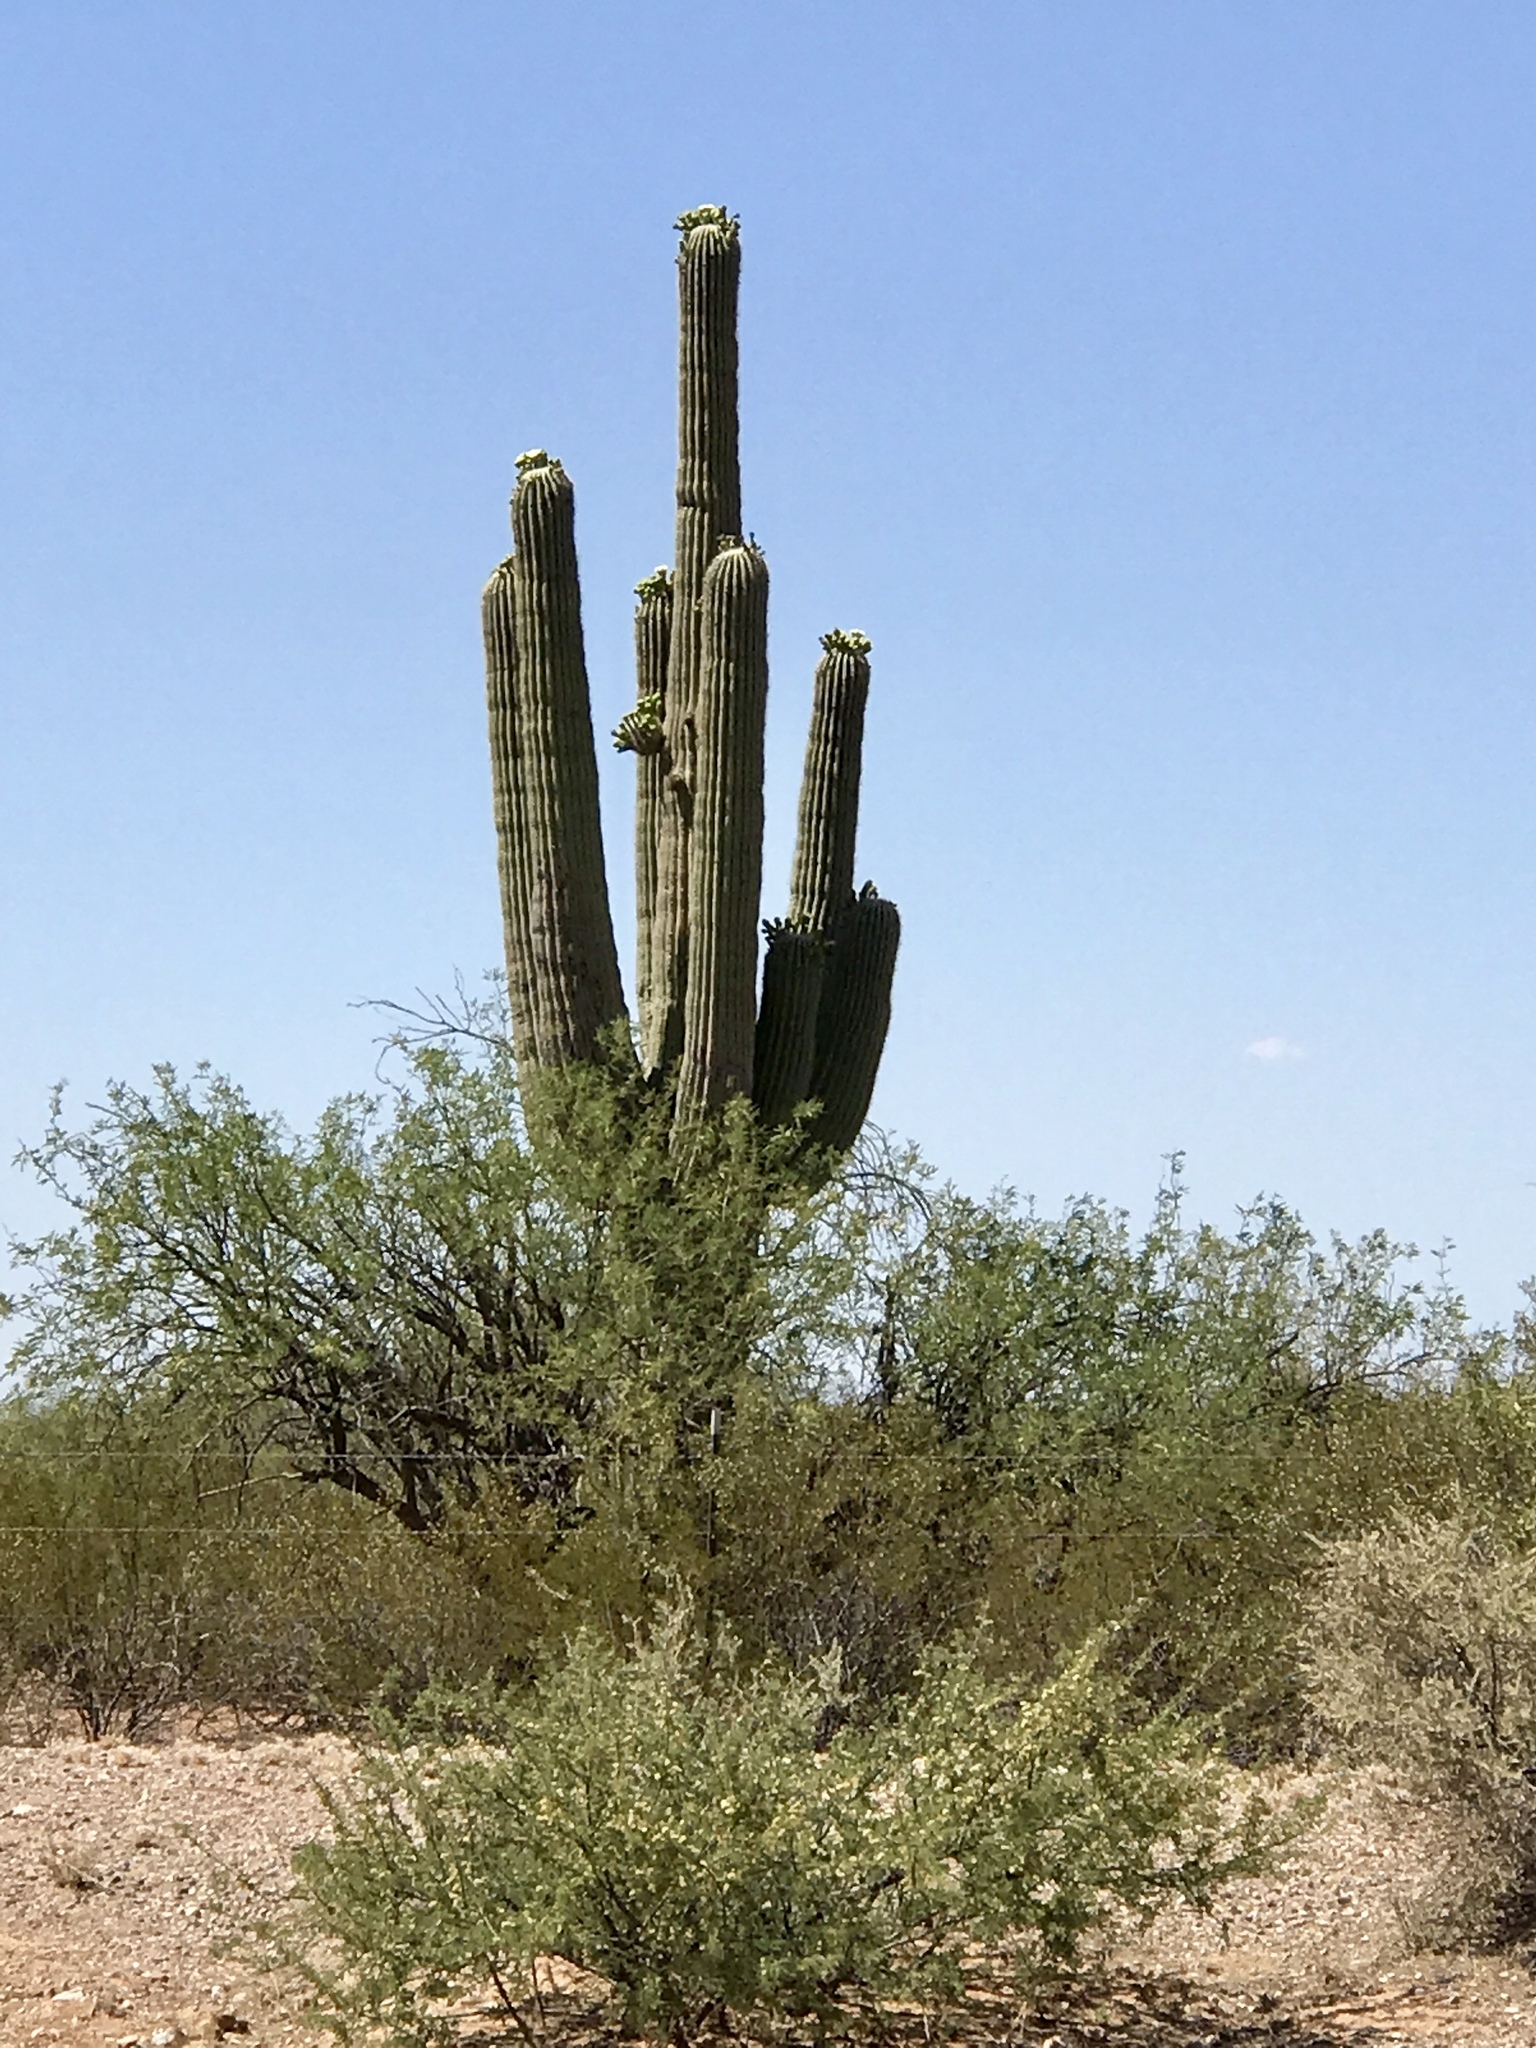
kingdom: Plantae
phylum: Tracheophyta
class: Magnoliopsida
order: Caryophyllales
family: Cactaceae
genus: Carnegiea
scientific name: Carnegiea gigantea
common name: Saguaro
